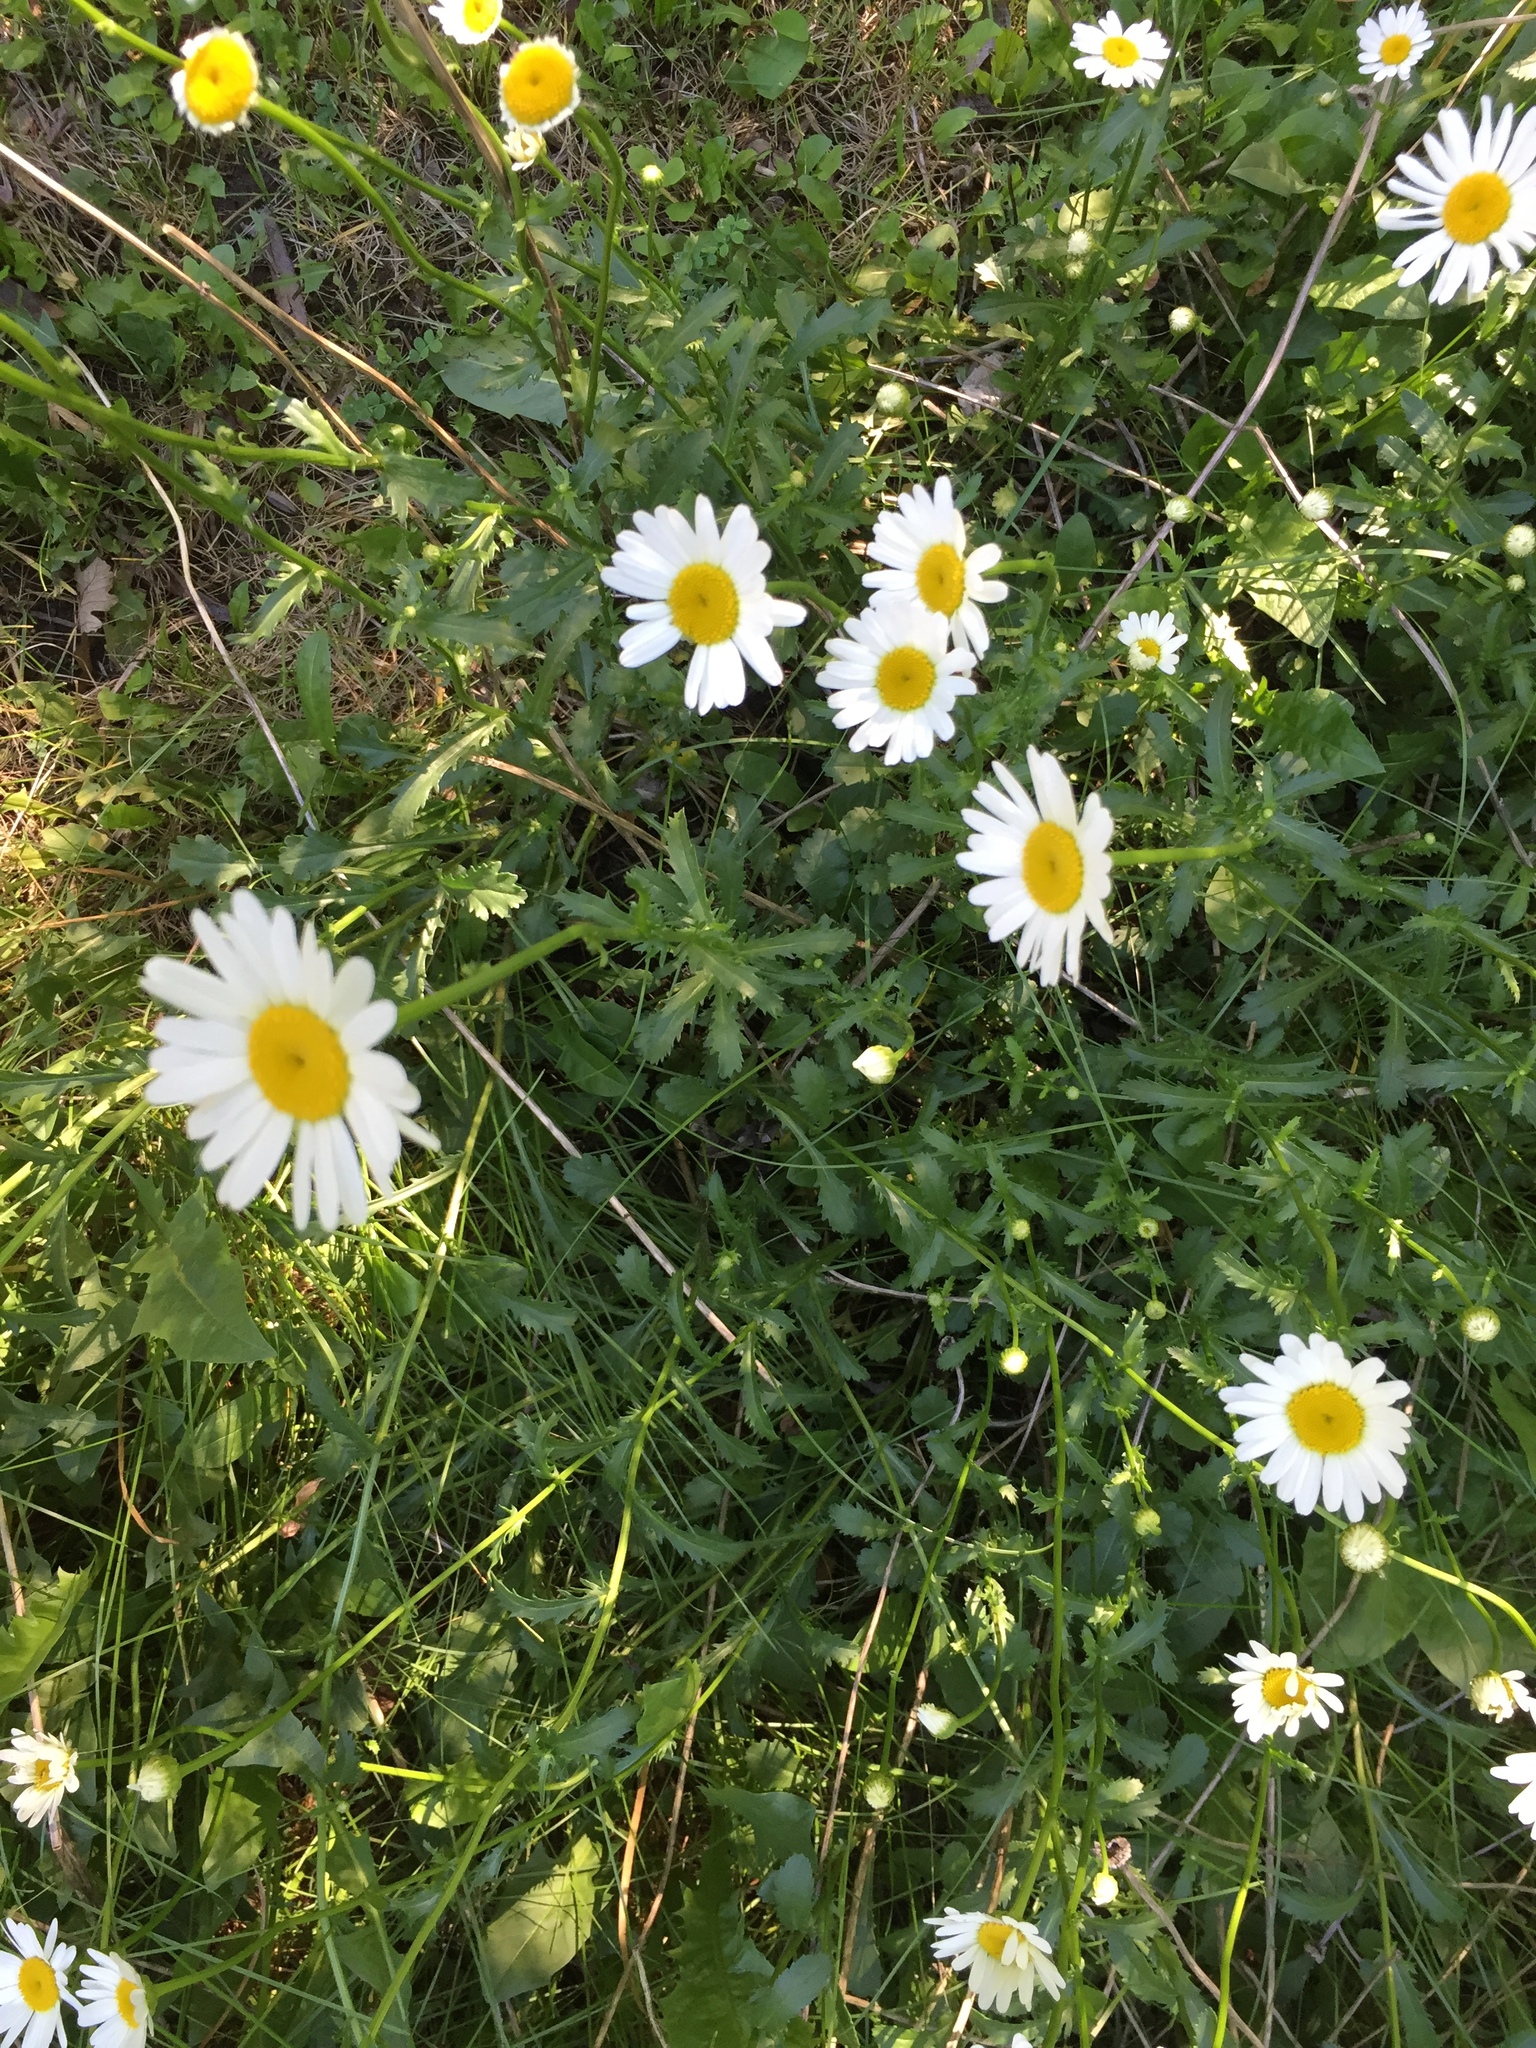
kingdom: Plantae
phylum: Tracheophyta
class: Magnoliopsida
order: Asterales
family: Asteraceae
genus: Leucanthemum
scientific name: Leucanthemum vulgare
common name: Oxeye daisy
